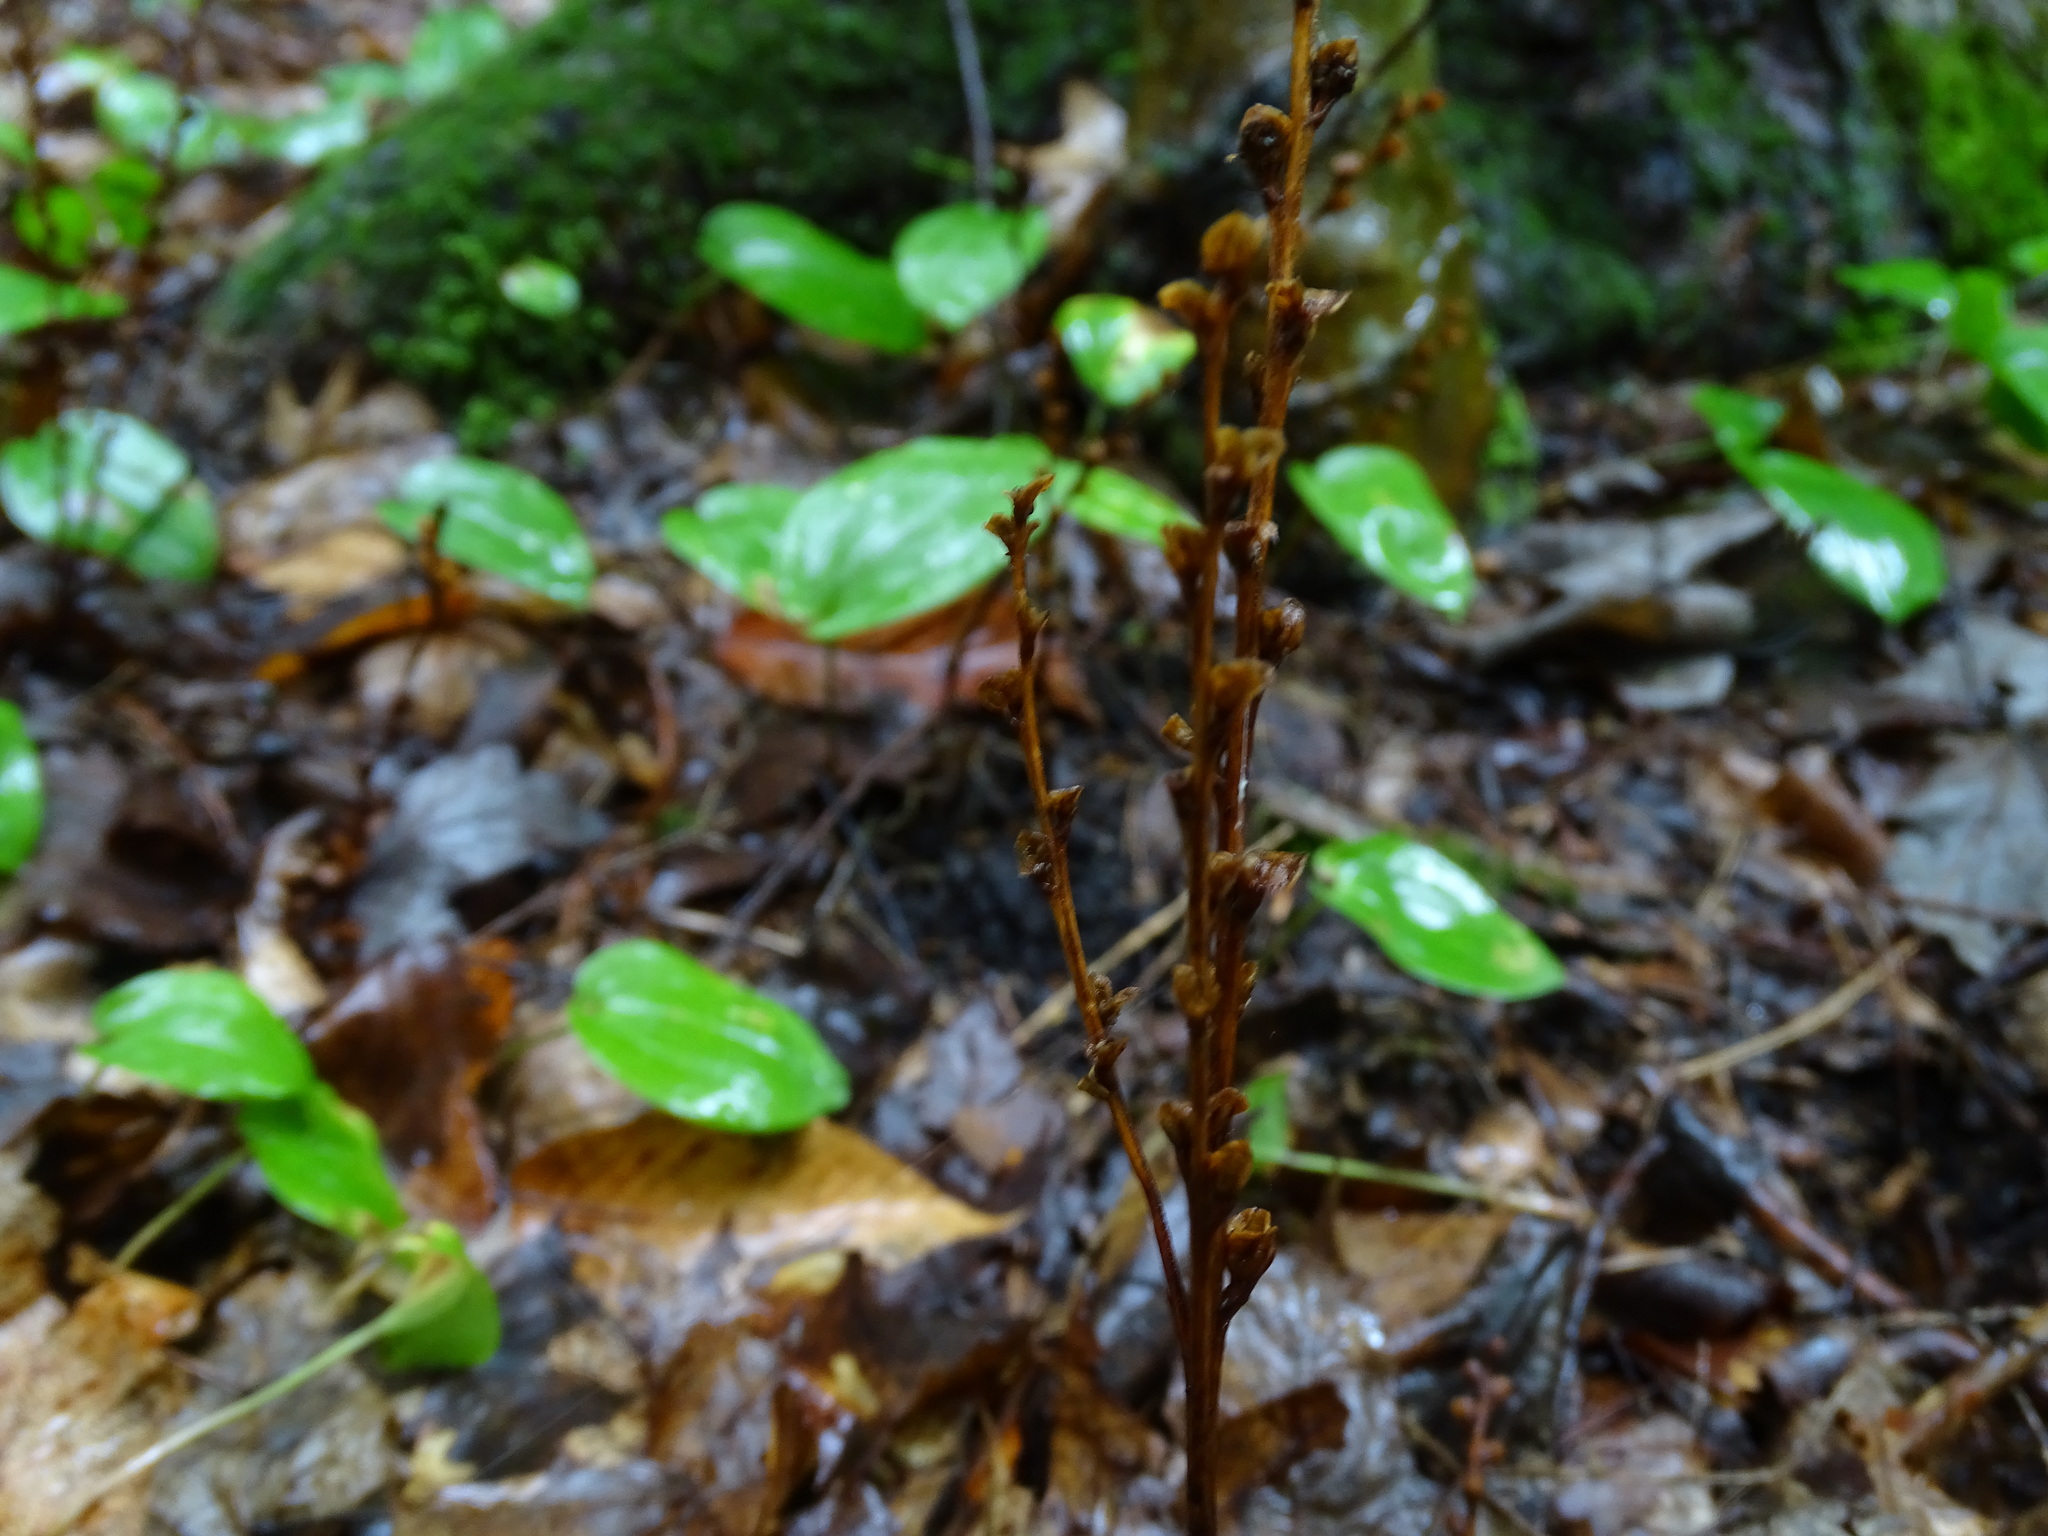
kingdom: Plantae
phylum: Tracheophyta
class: Magnoliopsida
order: Lamiales
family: Orobanchaceae
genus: Epifagus
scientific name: Epifagus virginiana
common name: Beechdrops
